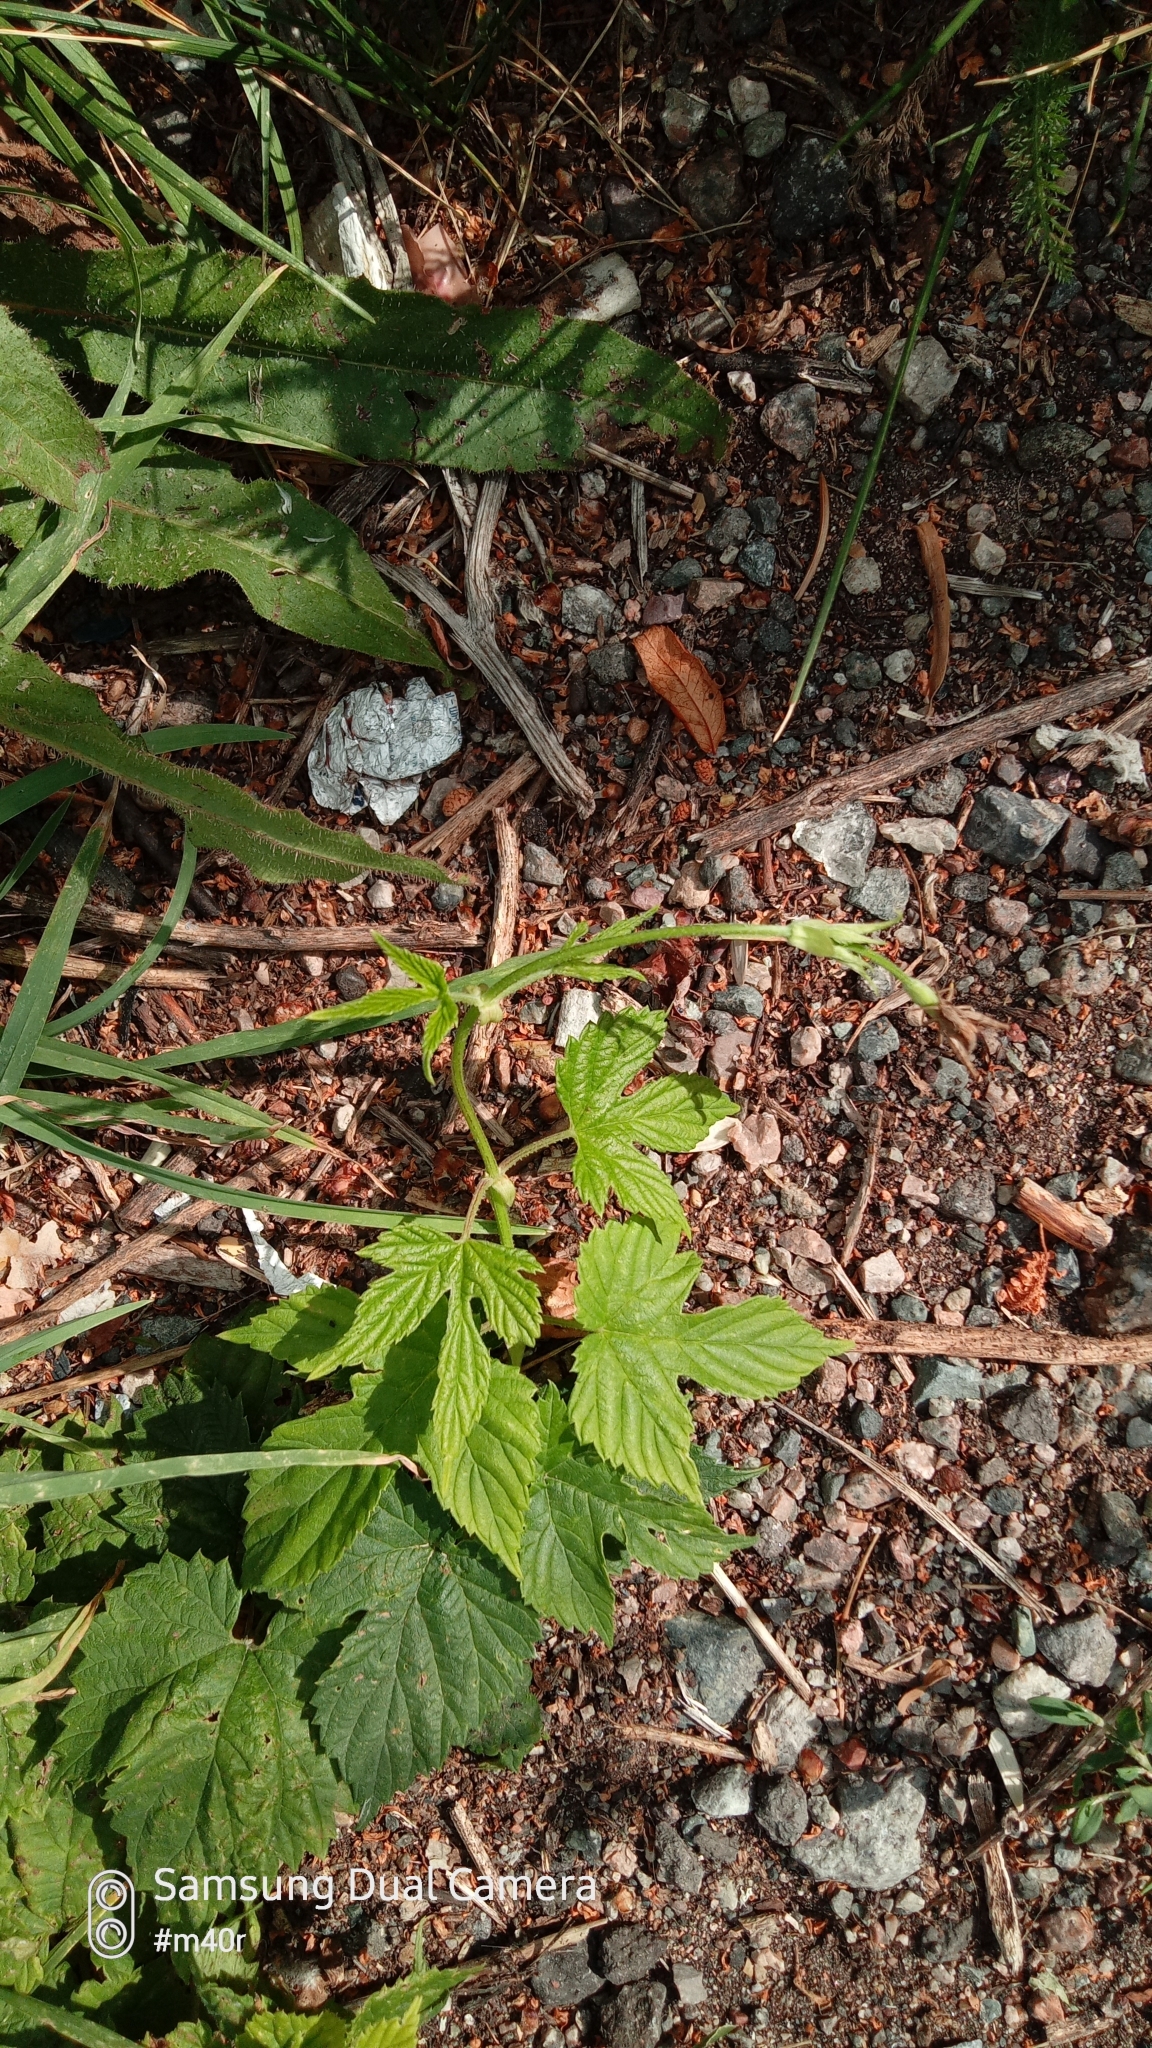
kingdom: Plantae
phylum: Tracheophyta
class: Magnoliopsida
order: Rosales
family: Cannabaceae
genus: Humulus
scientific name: Humulus lupulus
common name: Hop
